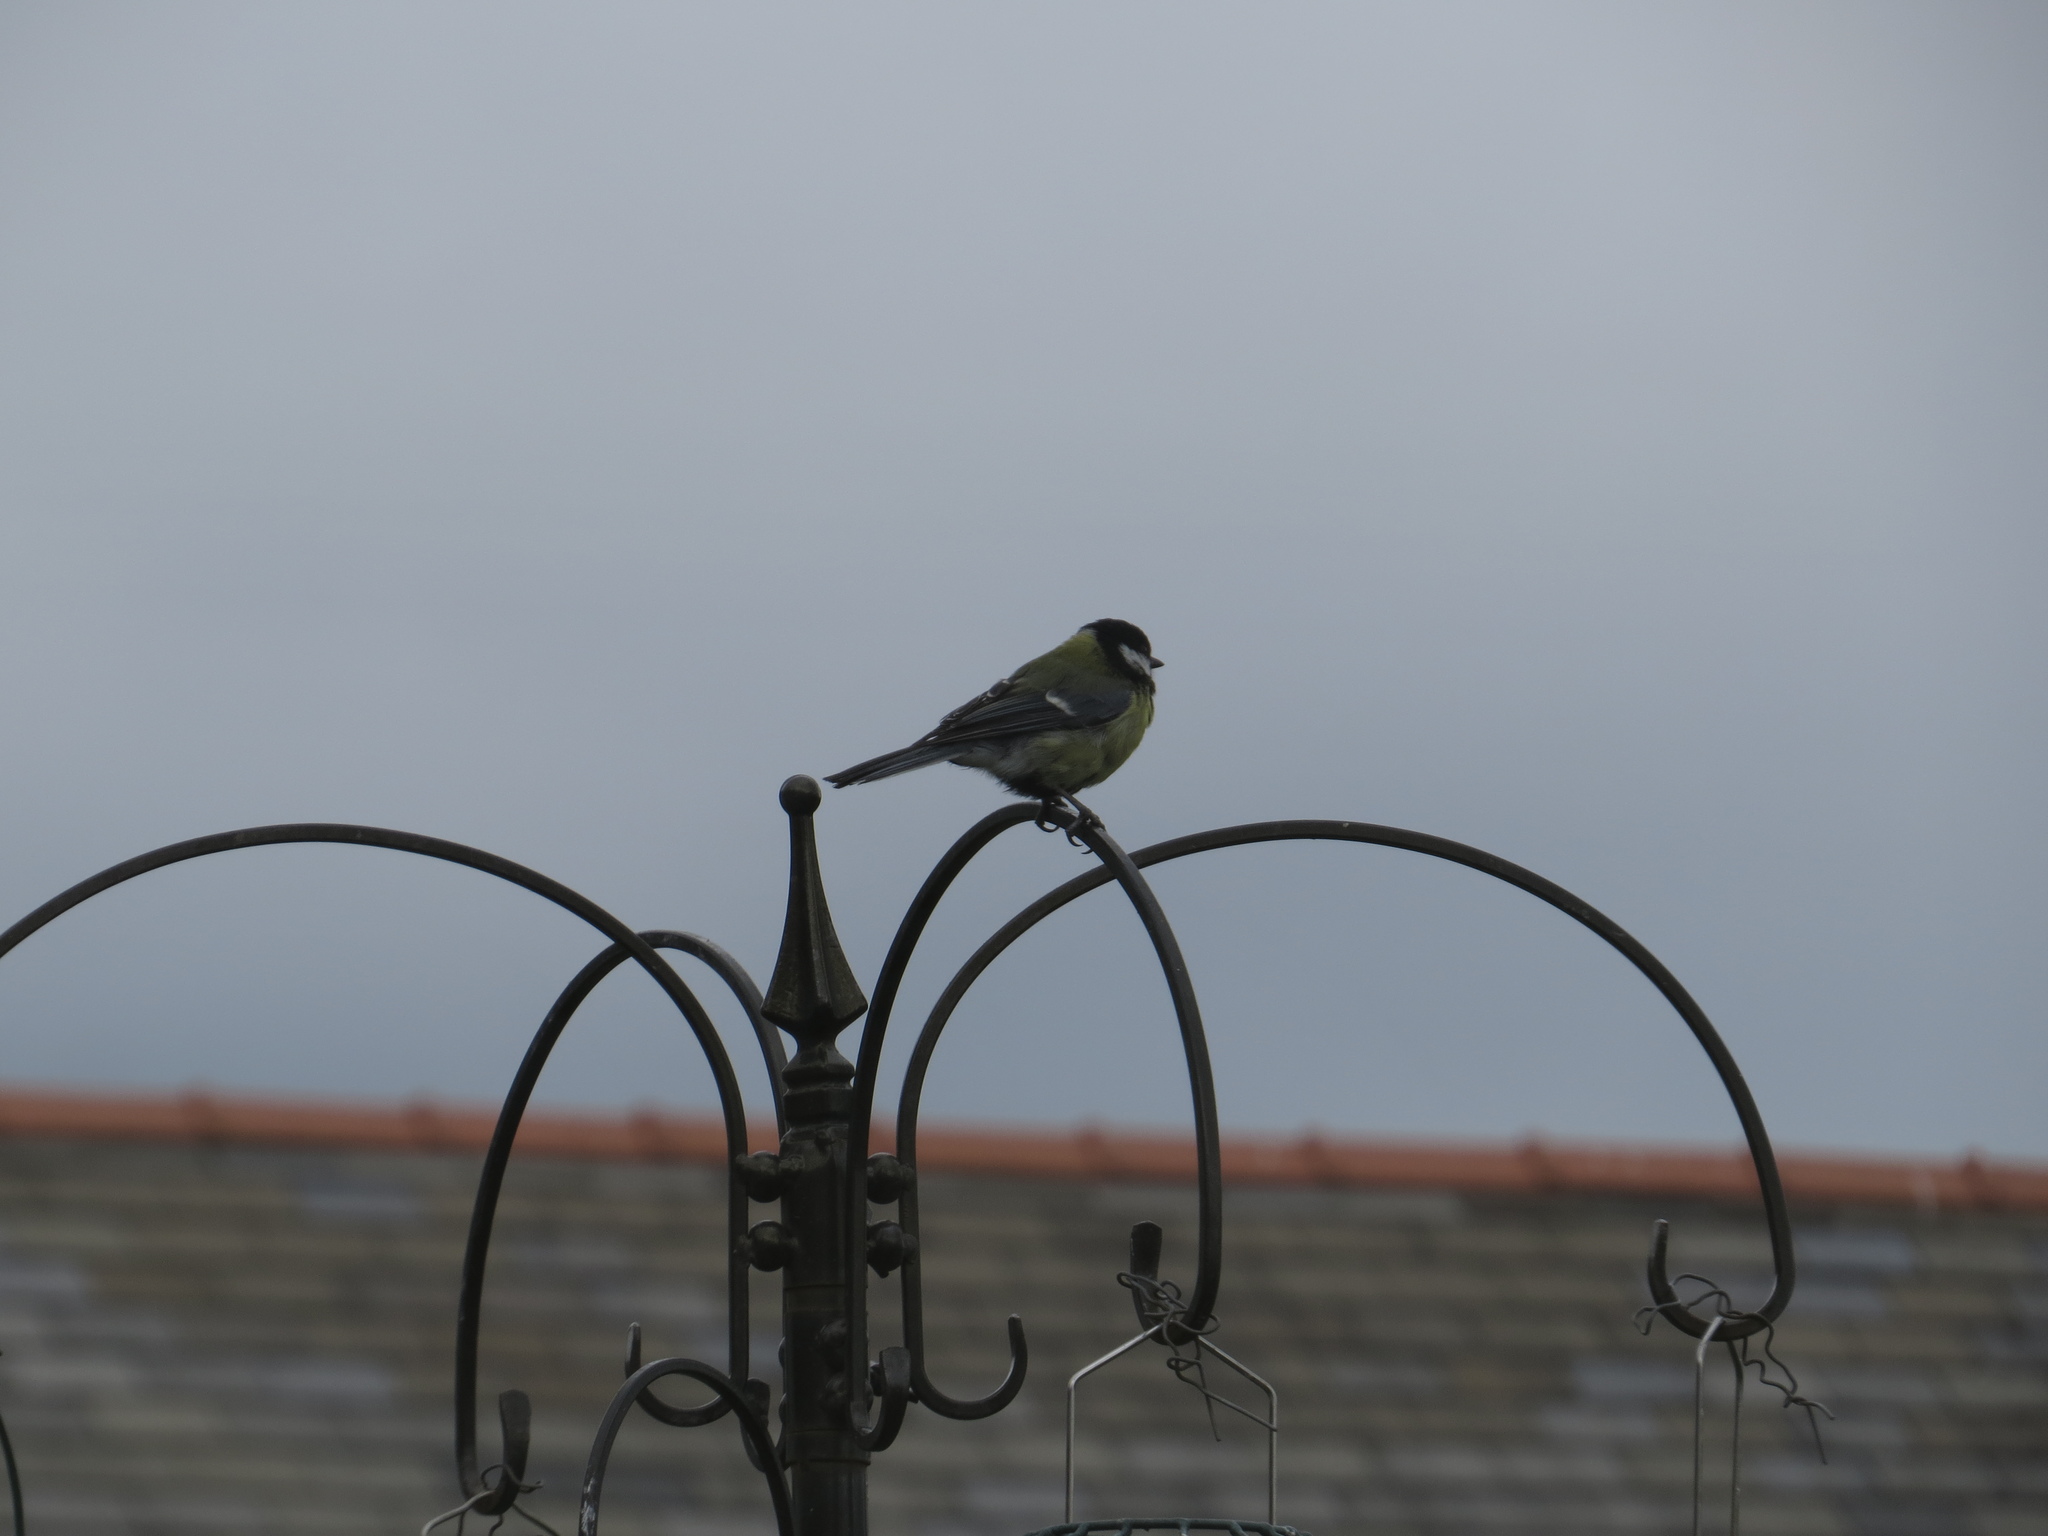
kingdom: Animalia
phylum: Chordata
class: Aves
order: Passeriformes
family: Paridae
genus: Parus
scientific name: Parus major
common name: Great tit
